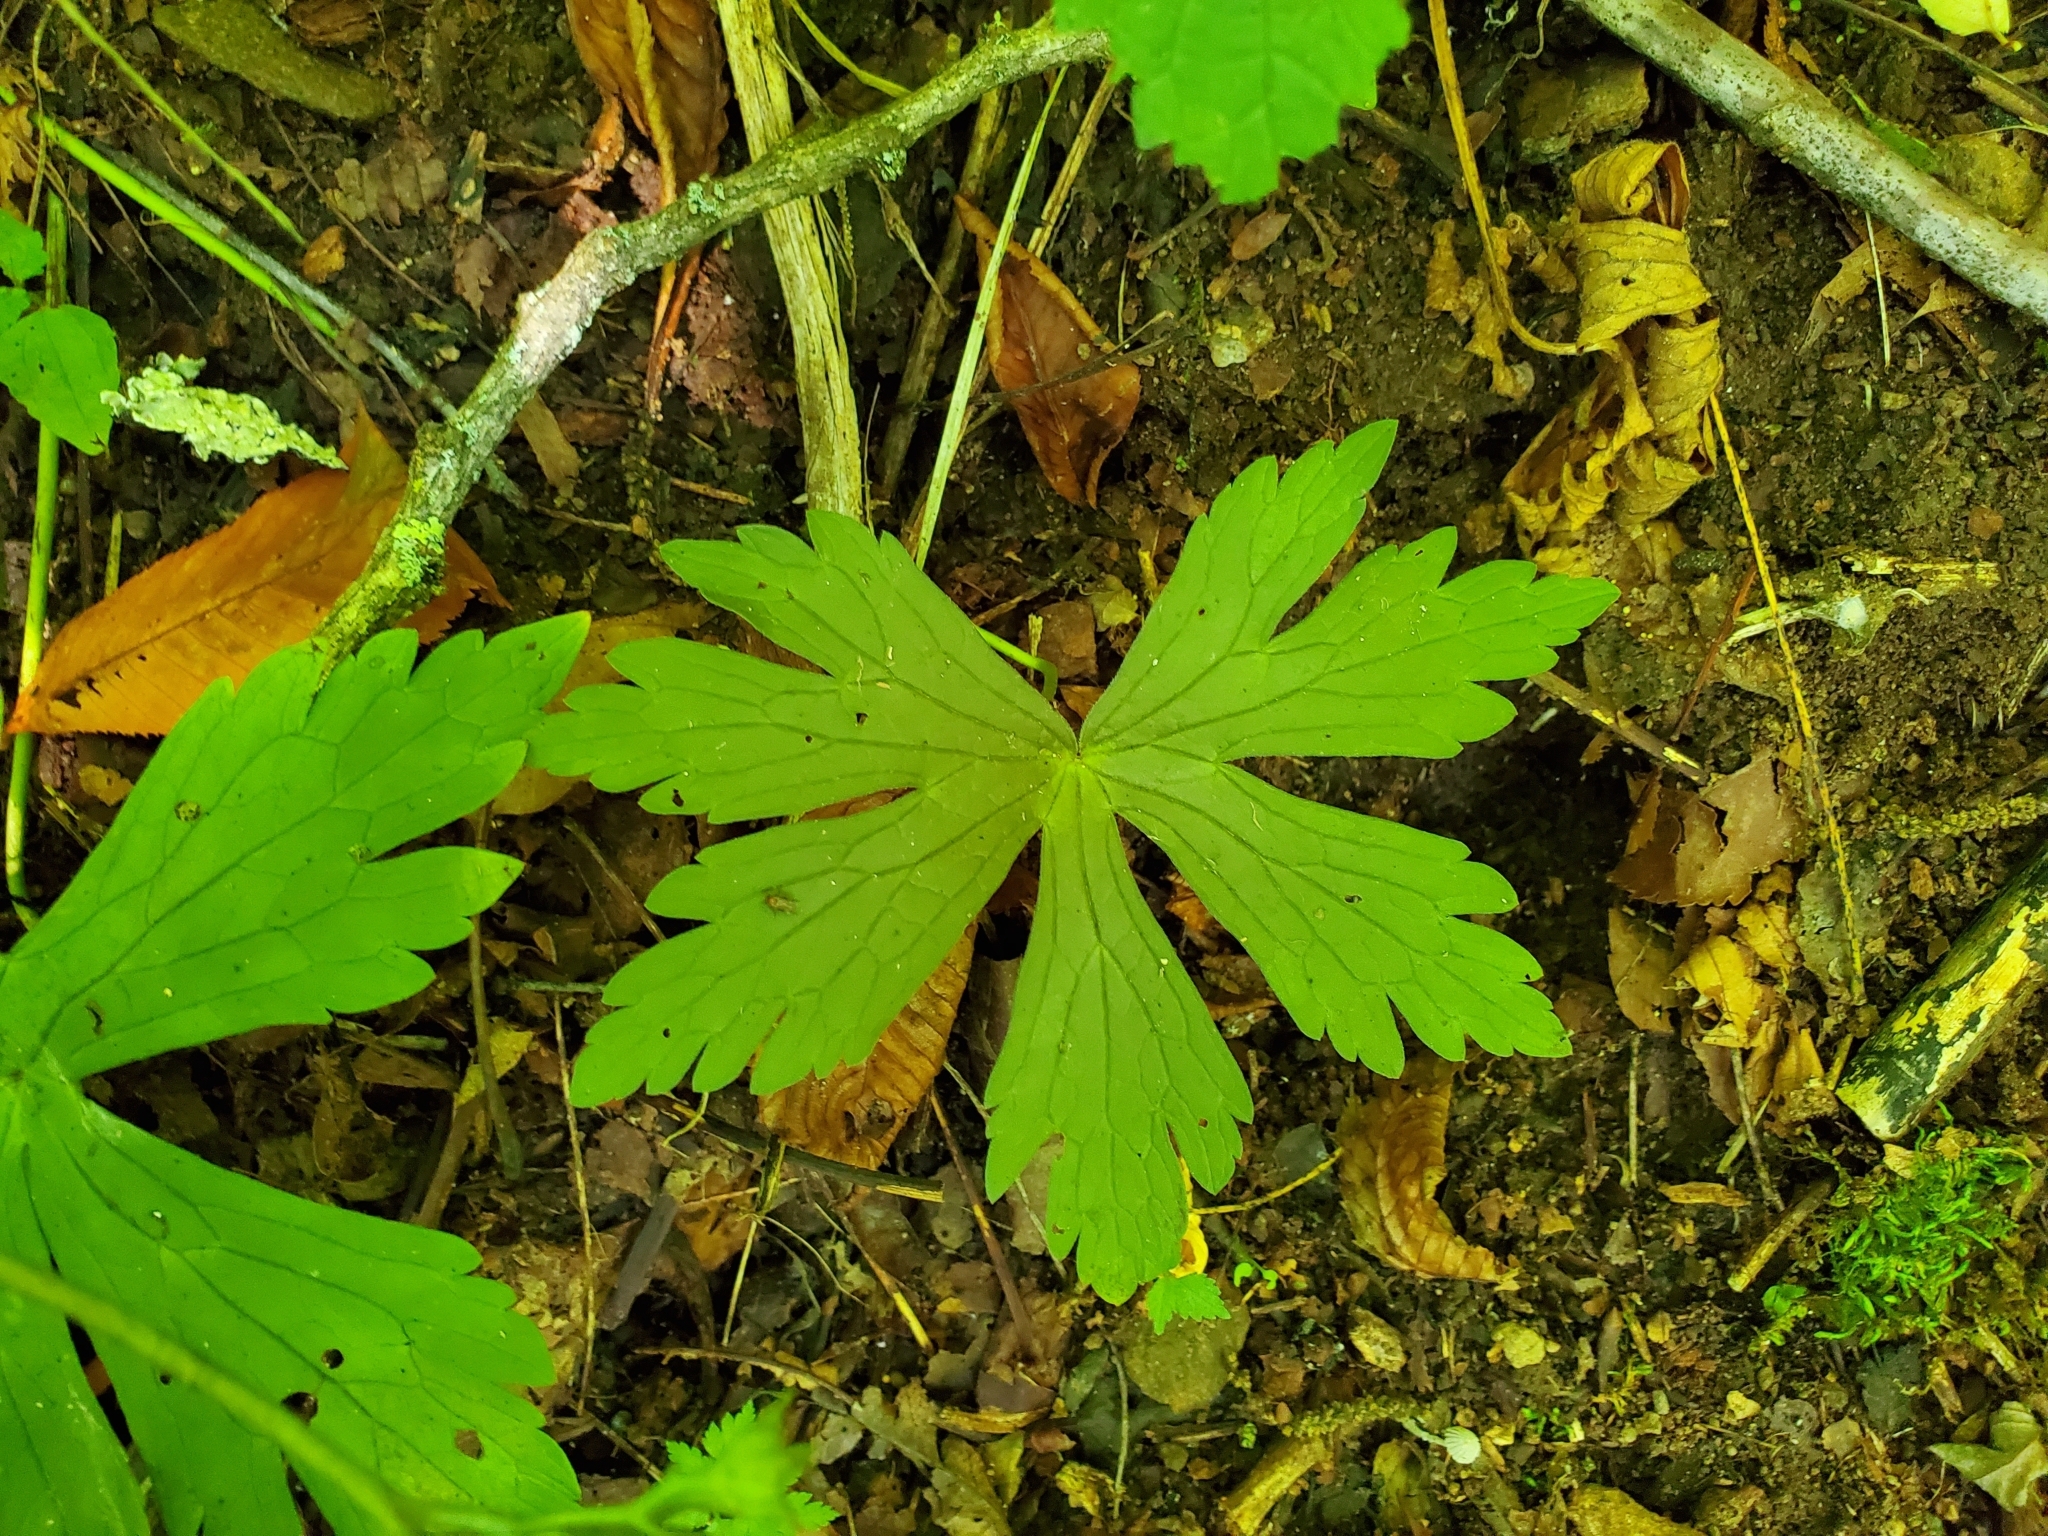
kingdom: Plantae
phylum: Tracheophyta
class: Magnoliopsida
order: Geraniales
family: Geraniaceae
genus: Geranium
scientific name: Geranium maculatum
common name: Spotted geranium
